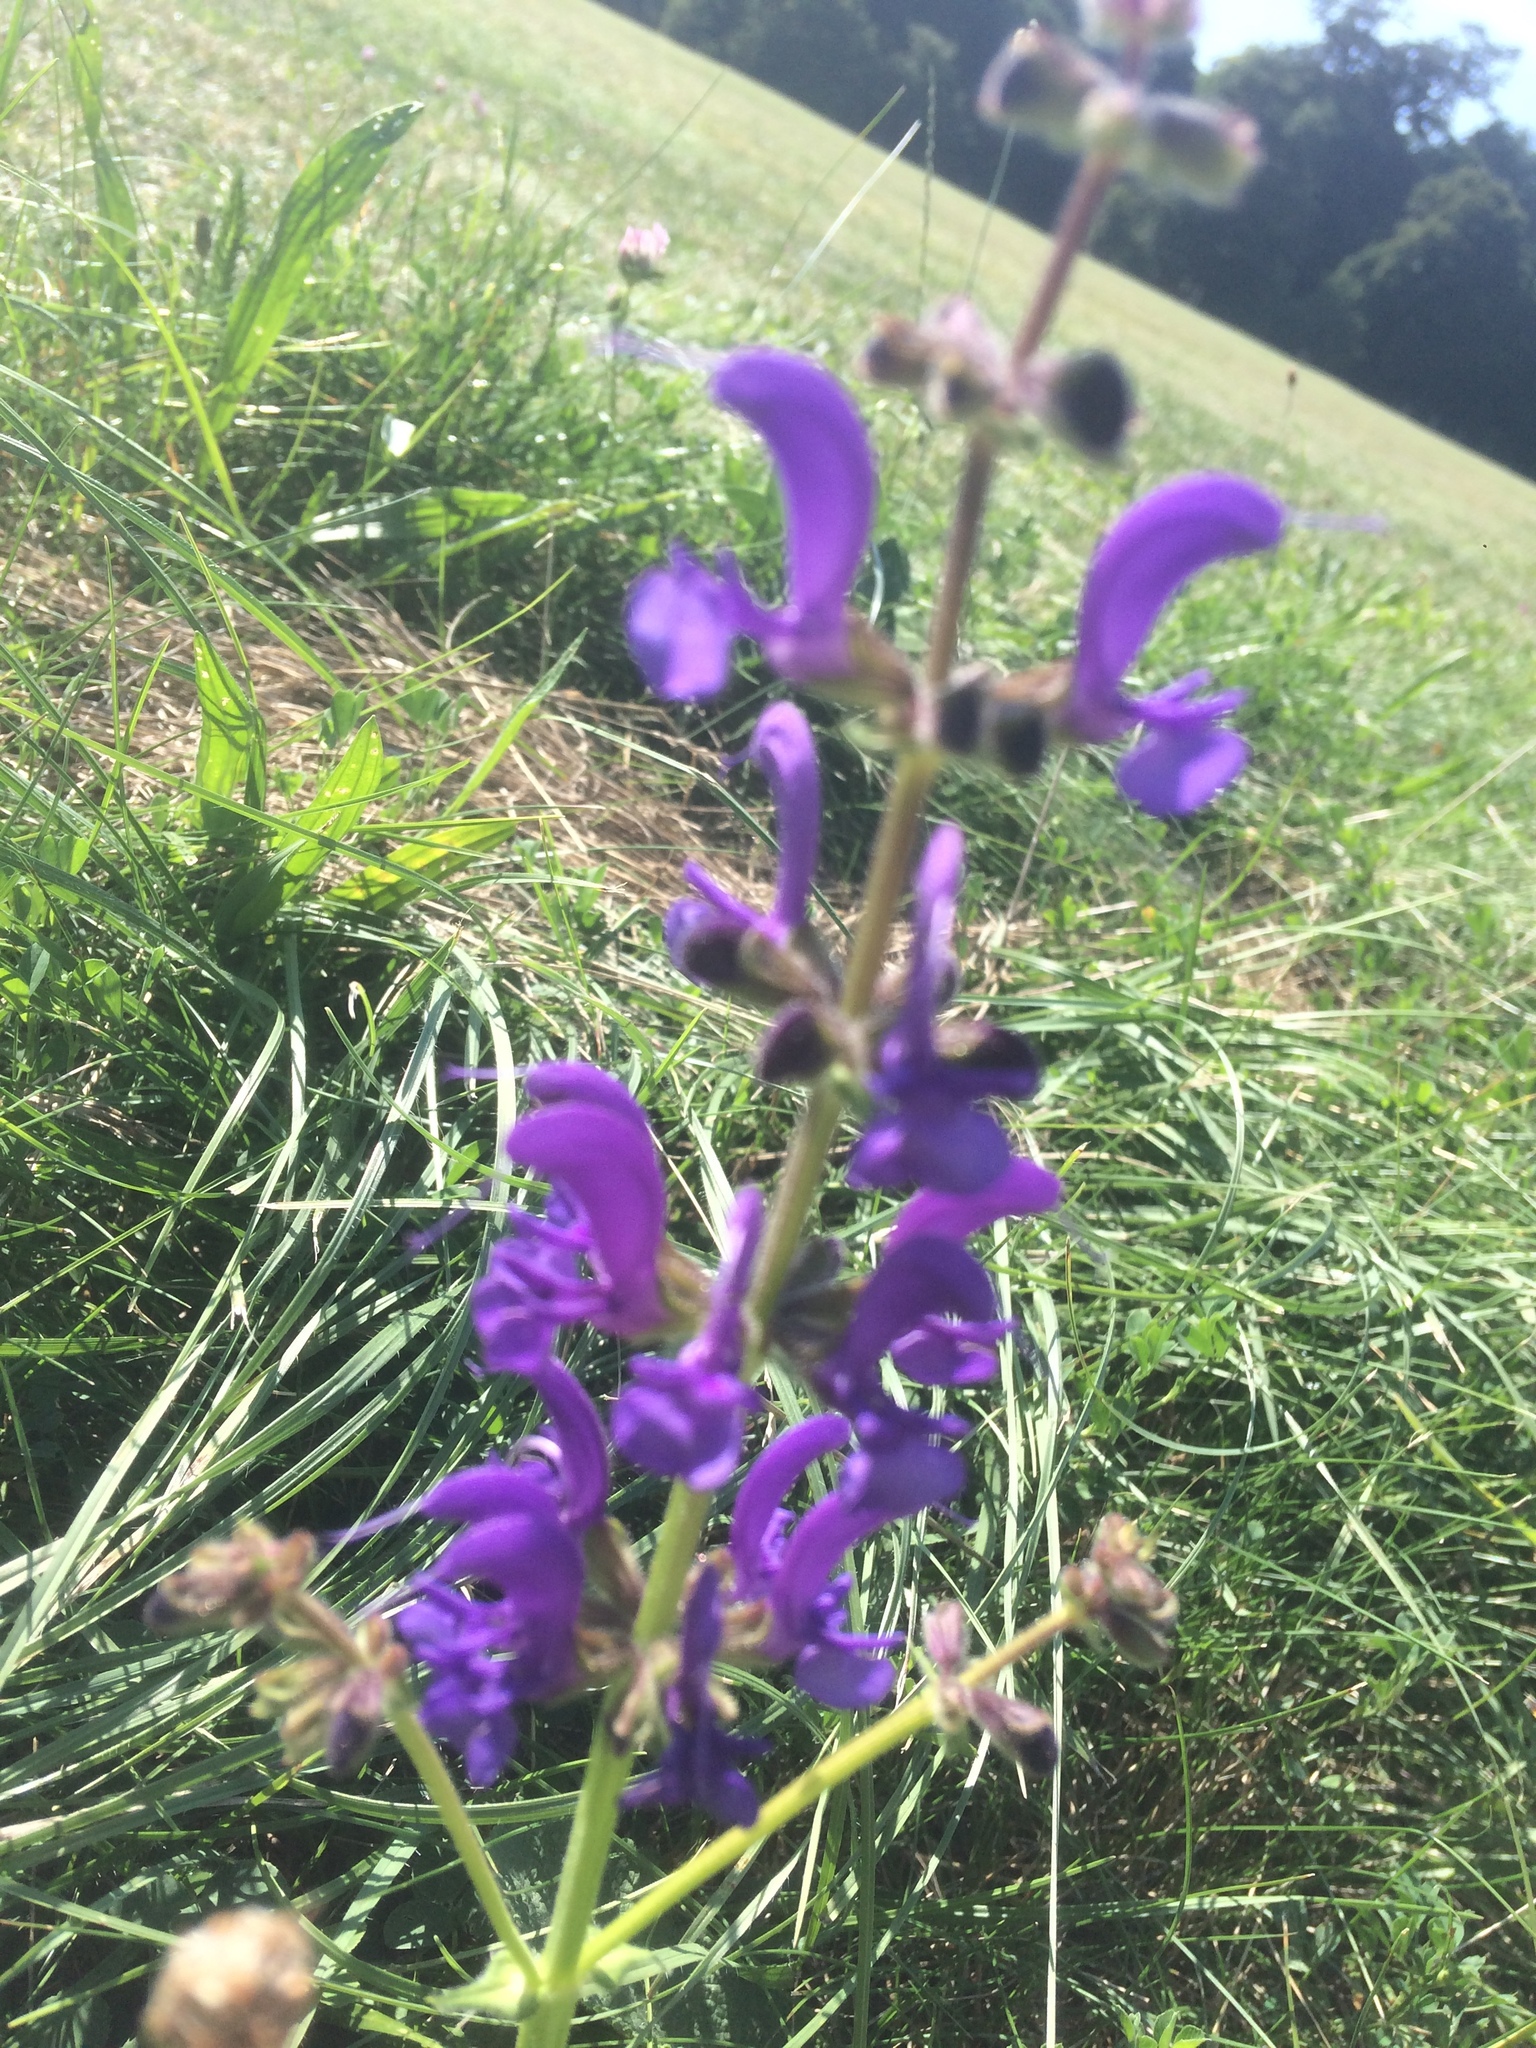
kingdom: Plantae
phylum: Tracheophyta
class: Magnoliopsida
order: Lamiales
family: Lamiaceae
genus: Salvia
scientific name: Salvia pratensis
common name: Meadow sage
